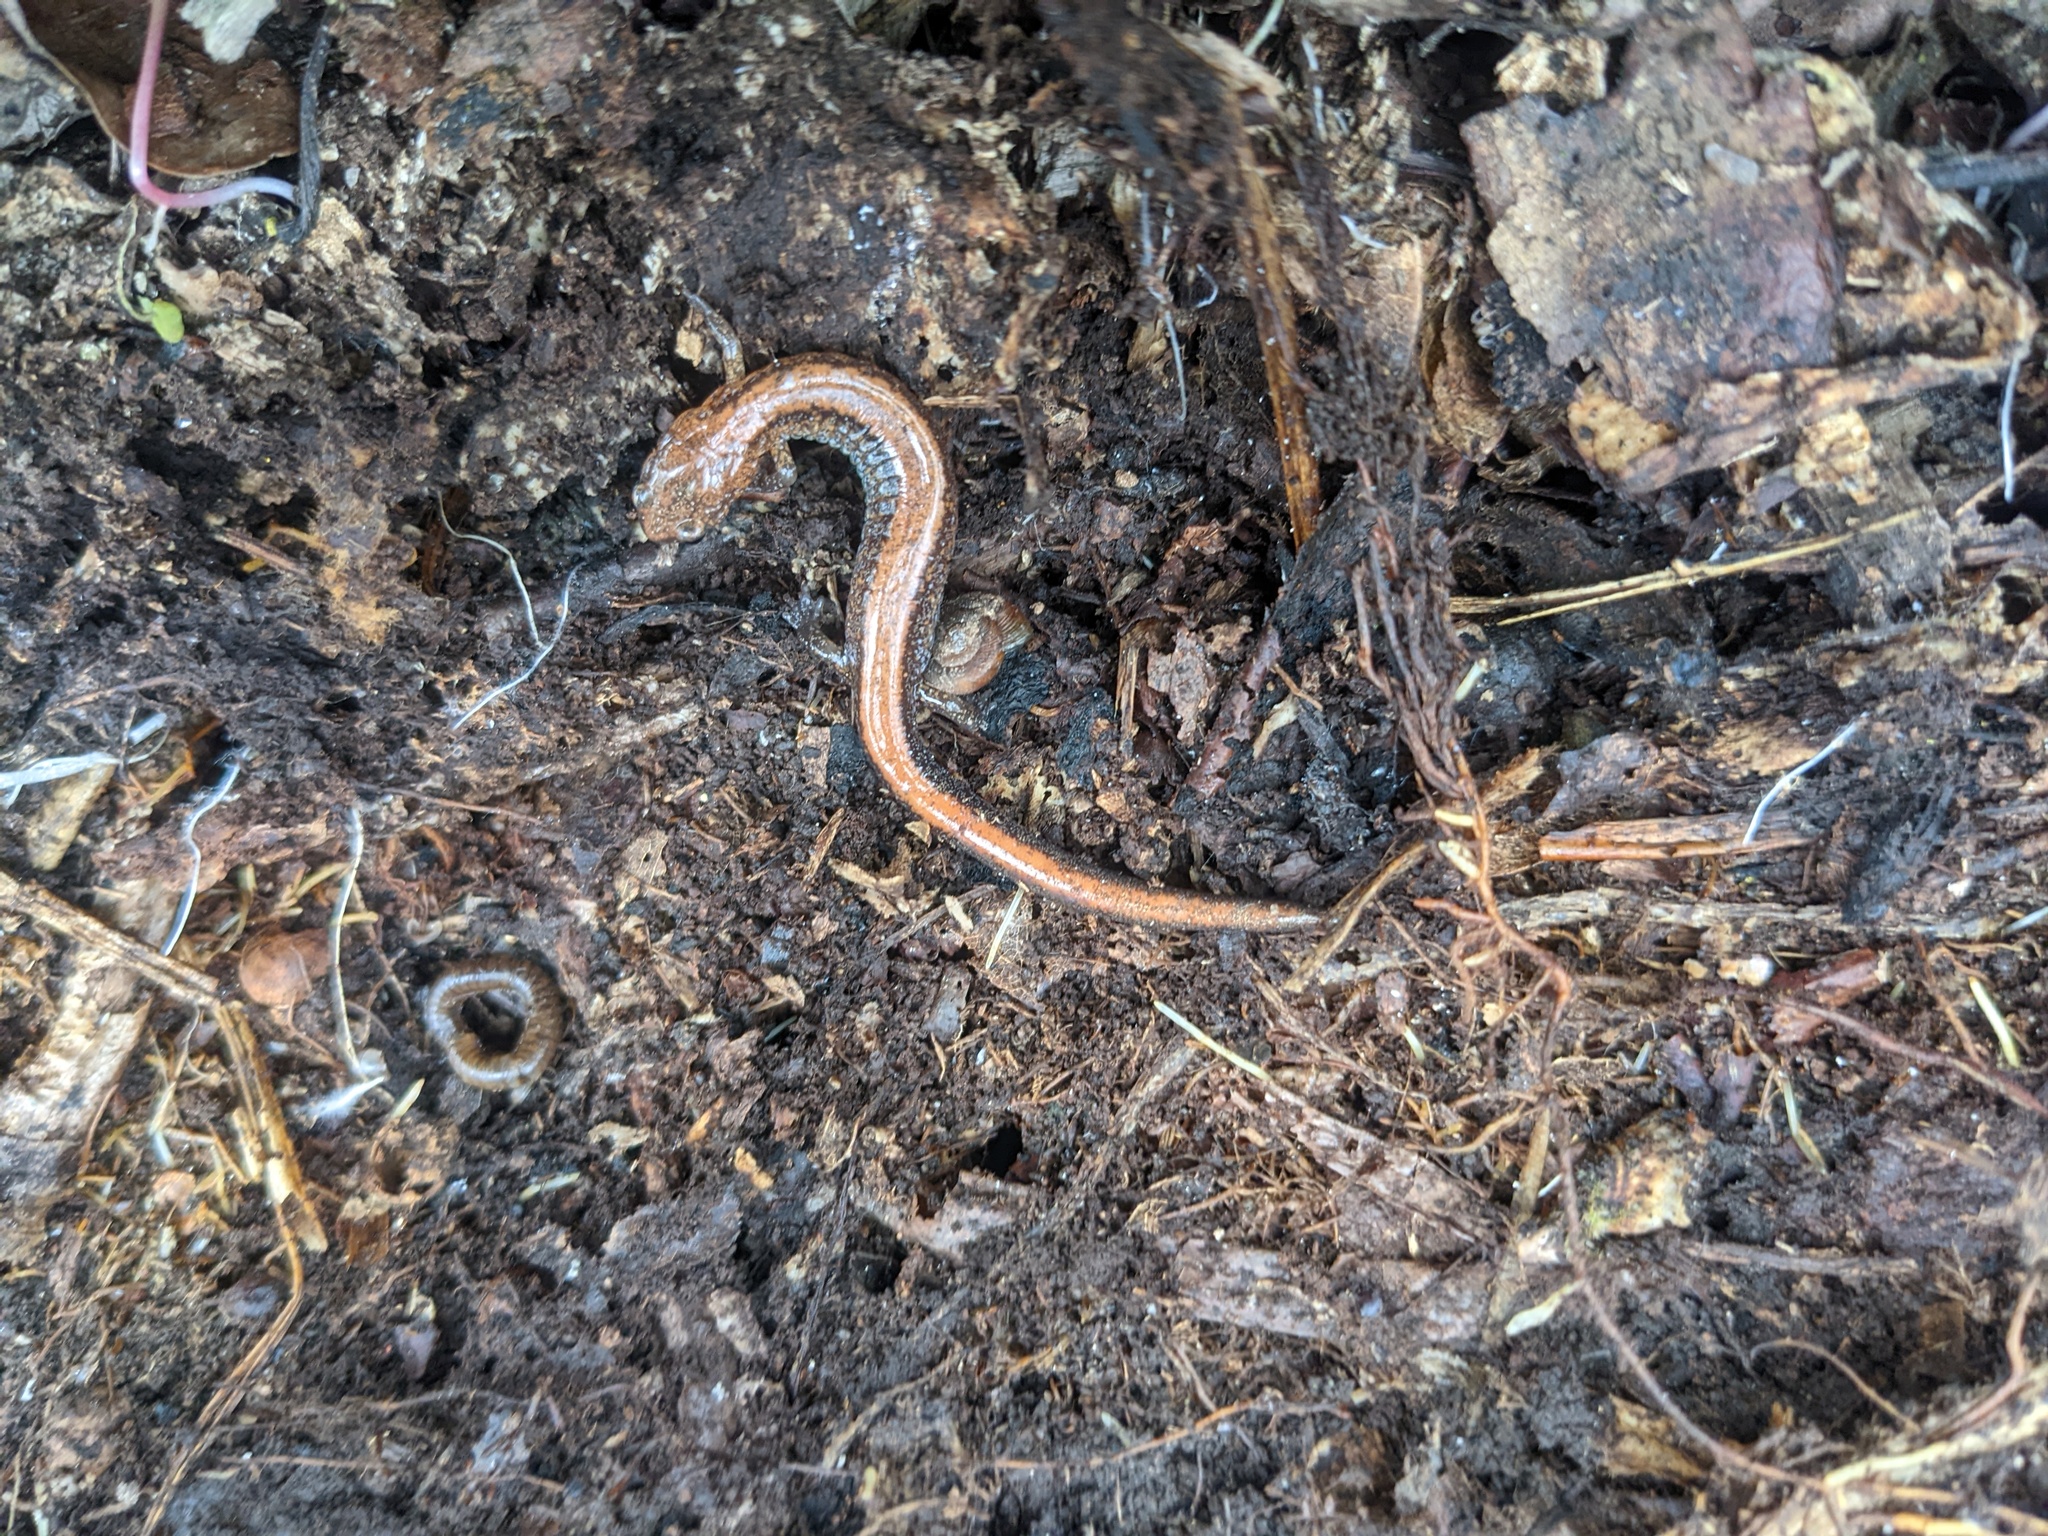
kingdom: Animalia
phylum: Chordata
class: Amphibia
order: Caudata
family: Plethodontidae
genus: Plethodon
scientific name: Plethodon cinereus
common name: Redback salamander
